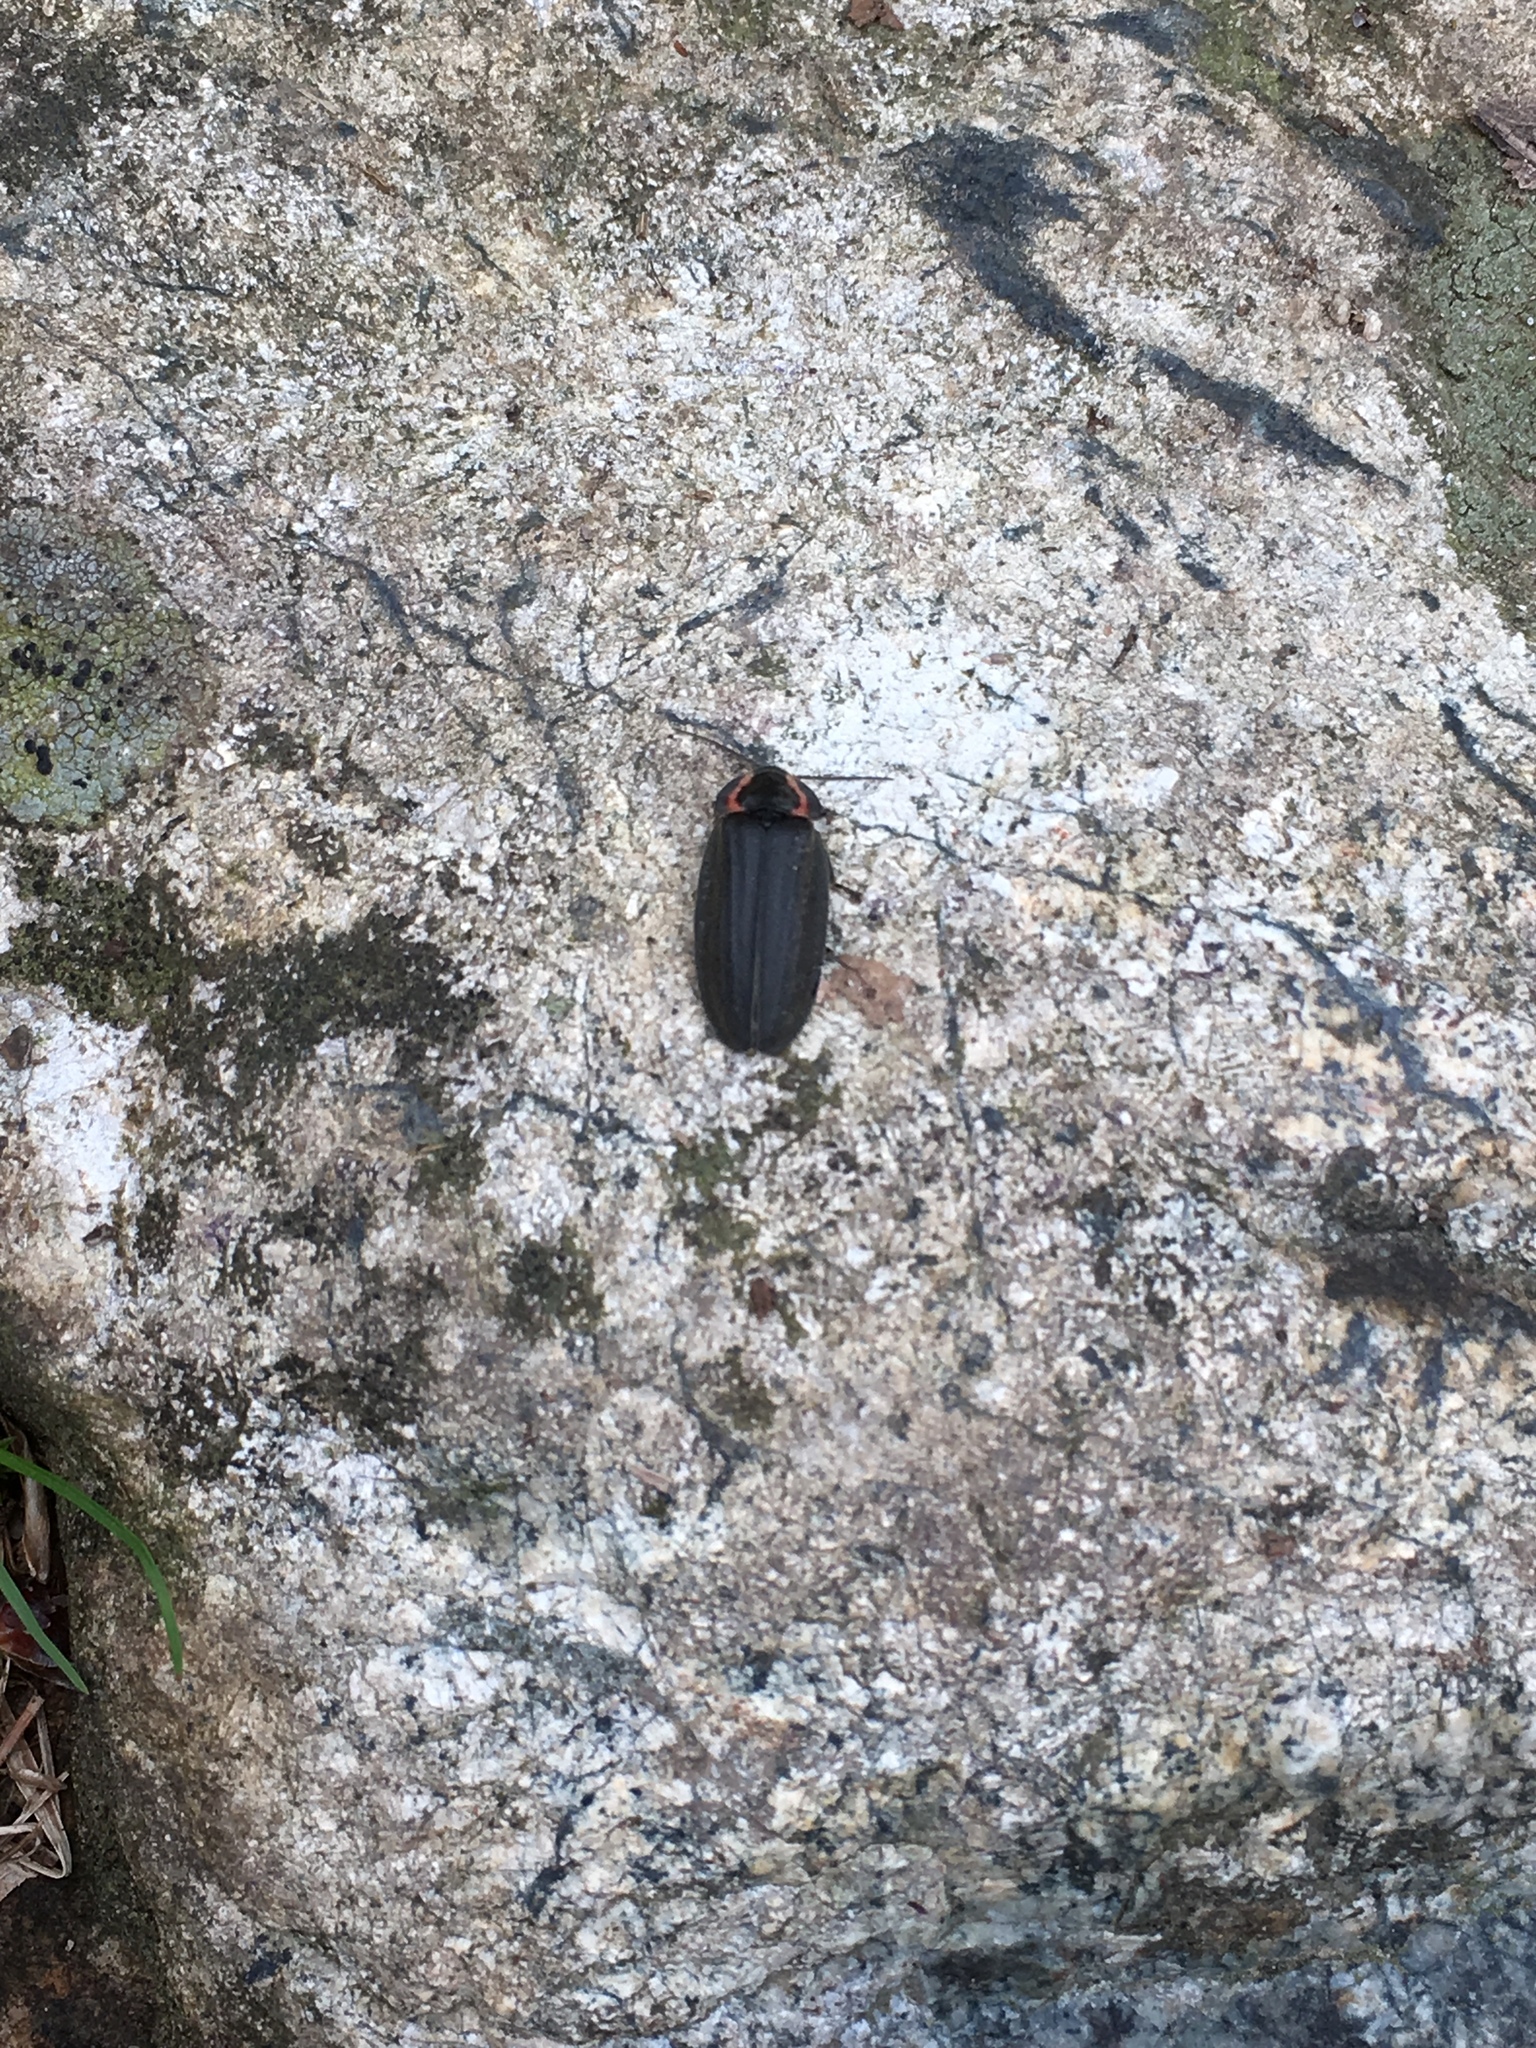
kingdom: Animalia
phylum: Arthropoda
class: Insecta
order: Coleoptera
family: Lampyridae
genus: Photinus
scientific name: Photinus corrusca
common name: Winter firefly
